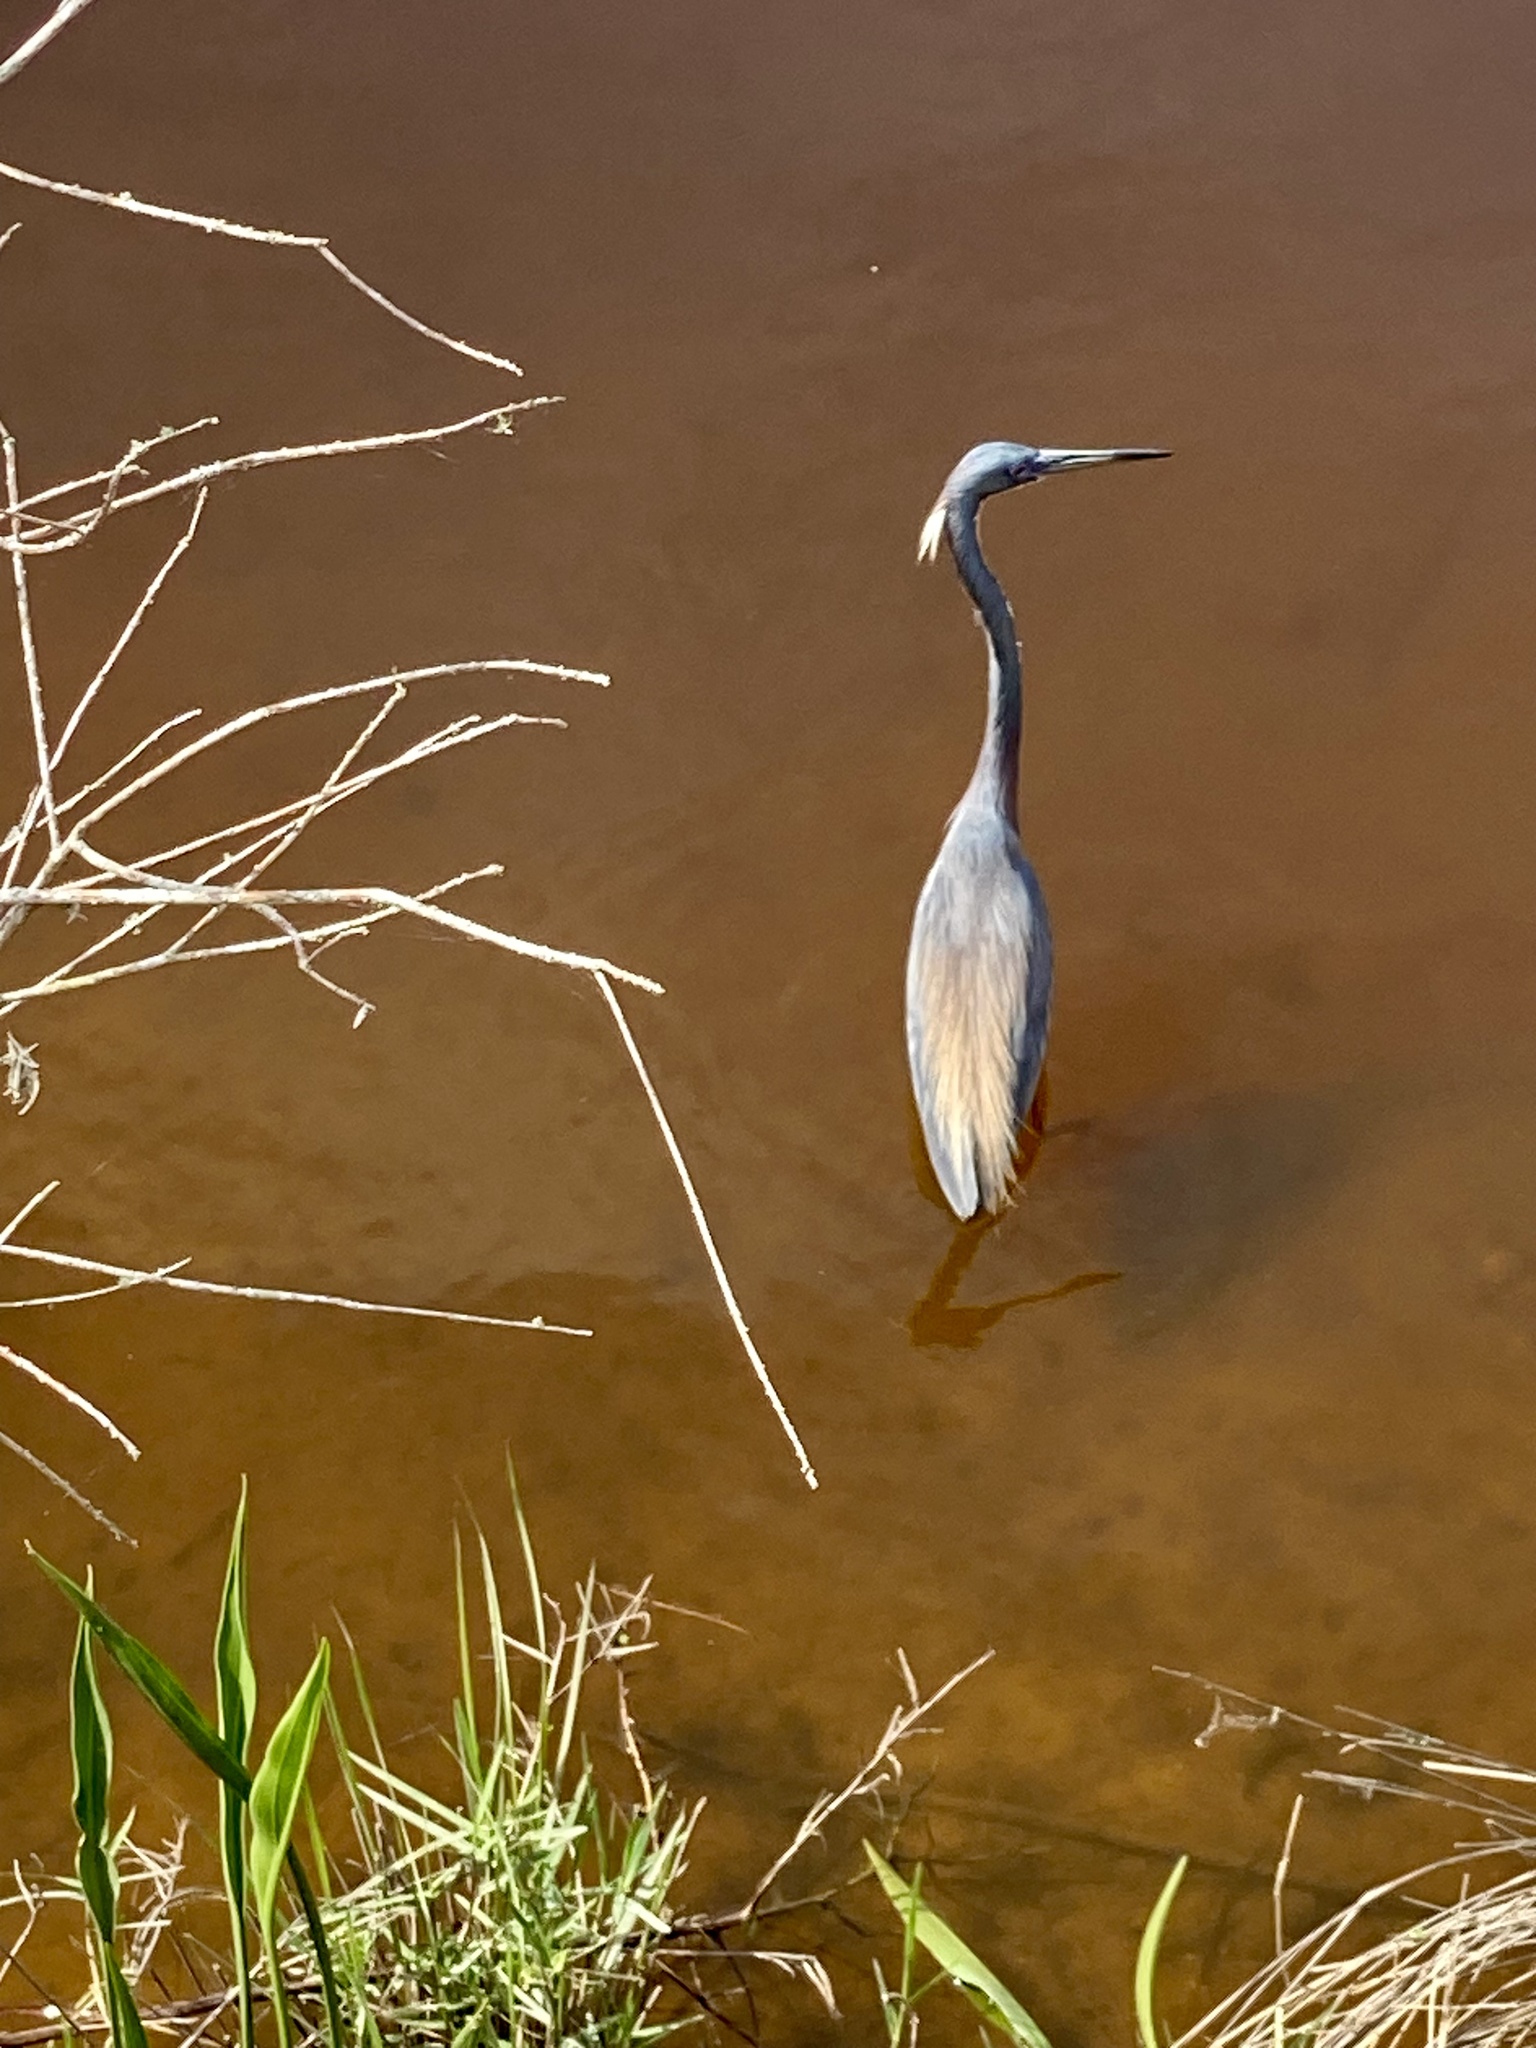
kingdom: Animalia
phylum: Chordata
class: Aves
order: Pelecaniformes
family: Ardeidae
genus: Egretta
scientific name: Egretta tricolor
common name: Tricolored heron
